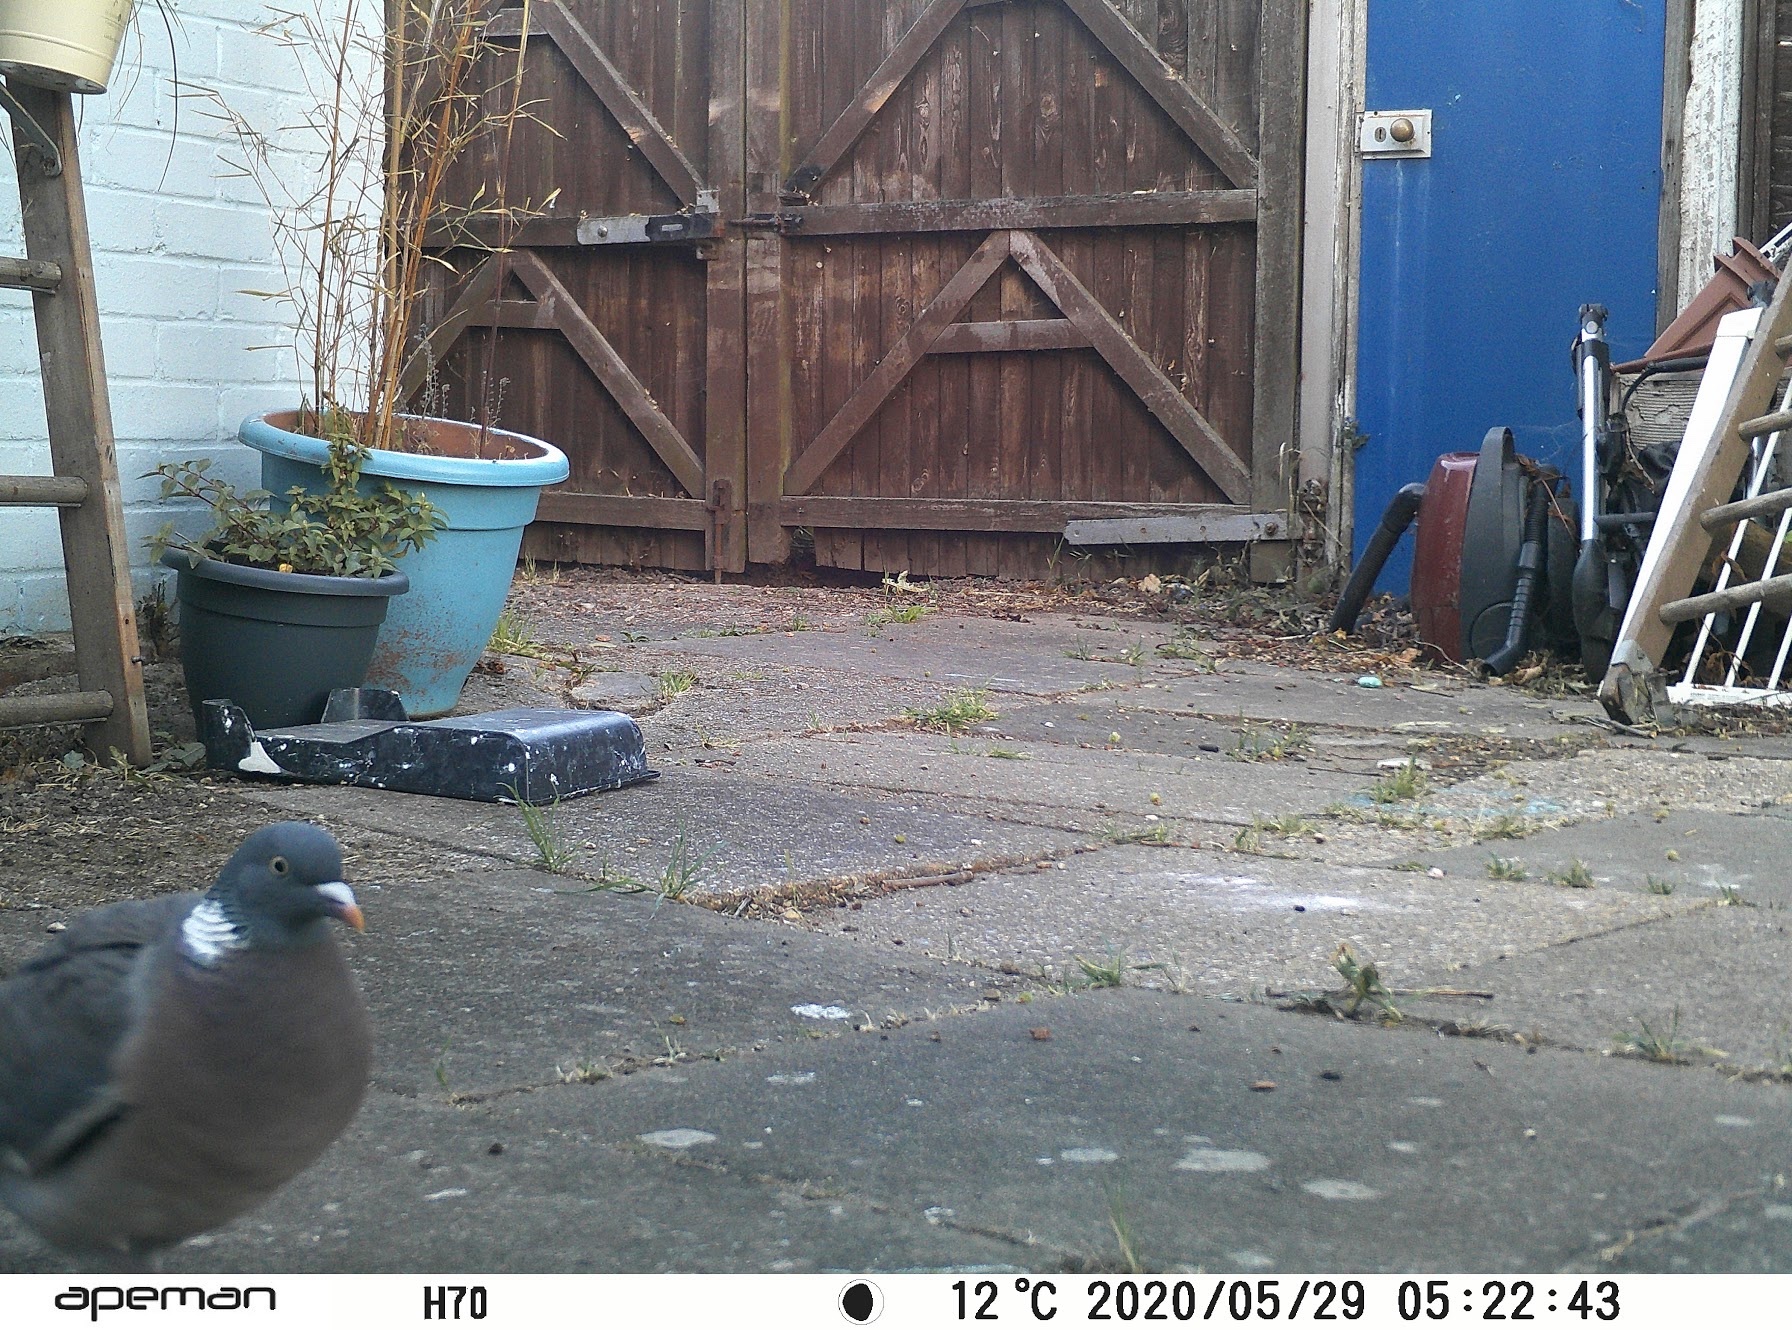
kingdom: Animalia
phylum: Chordata
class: Aves
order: Columbiformes
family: Columbidae
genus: Columba
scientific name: Columba palumbus
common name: Common wood pigeon
